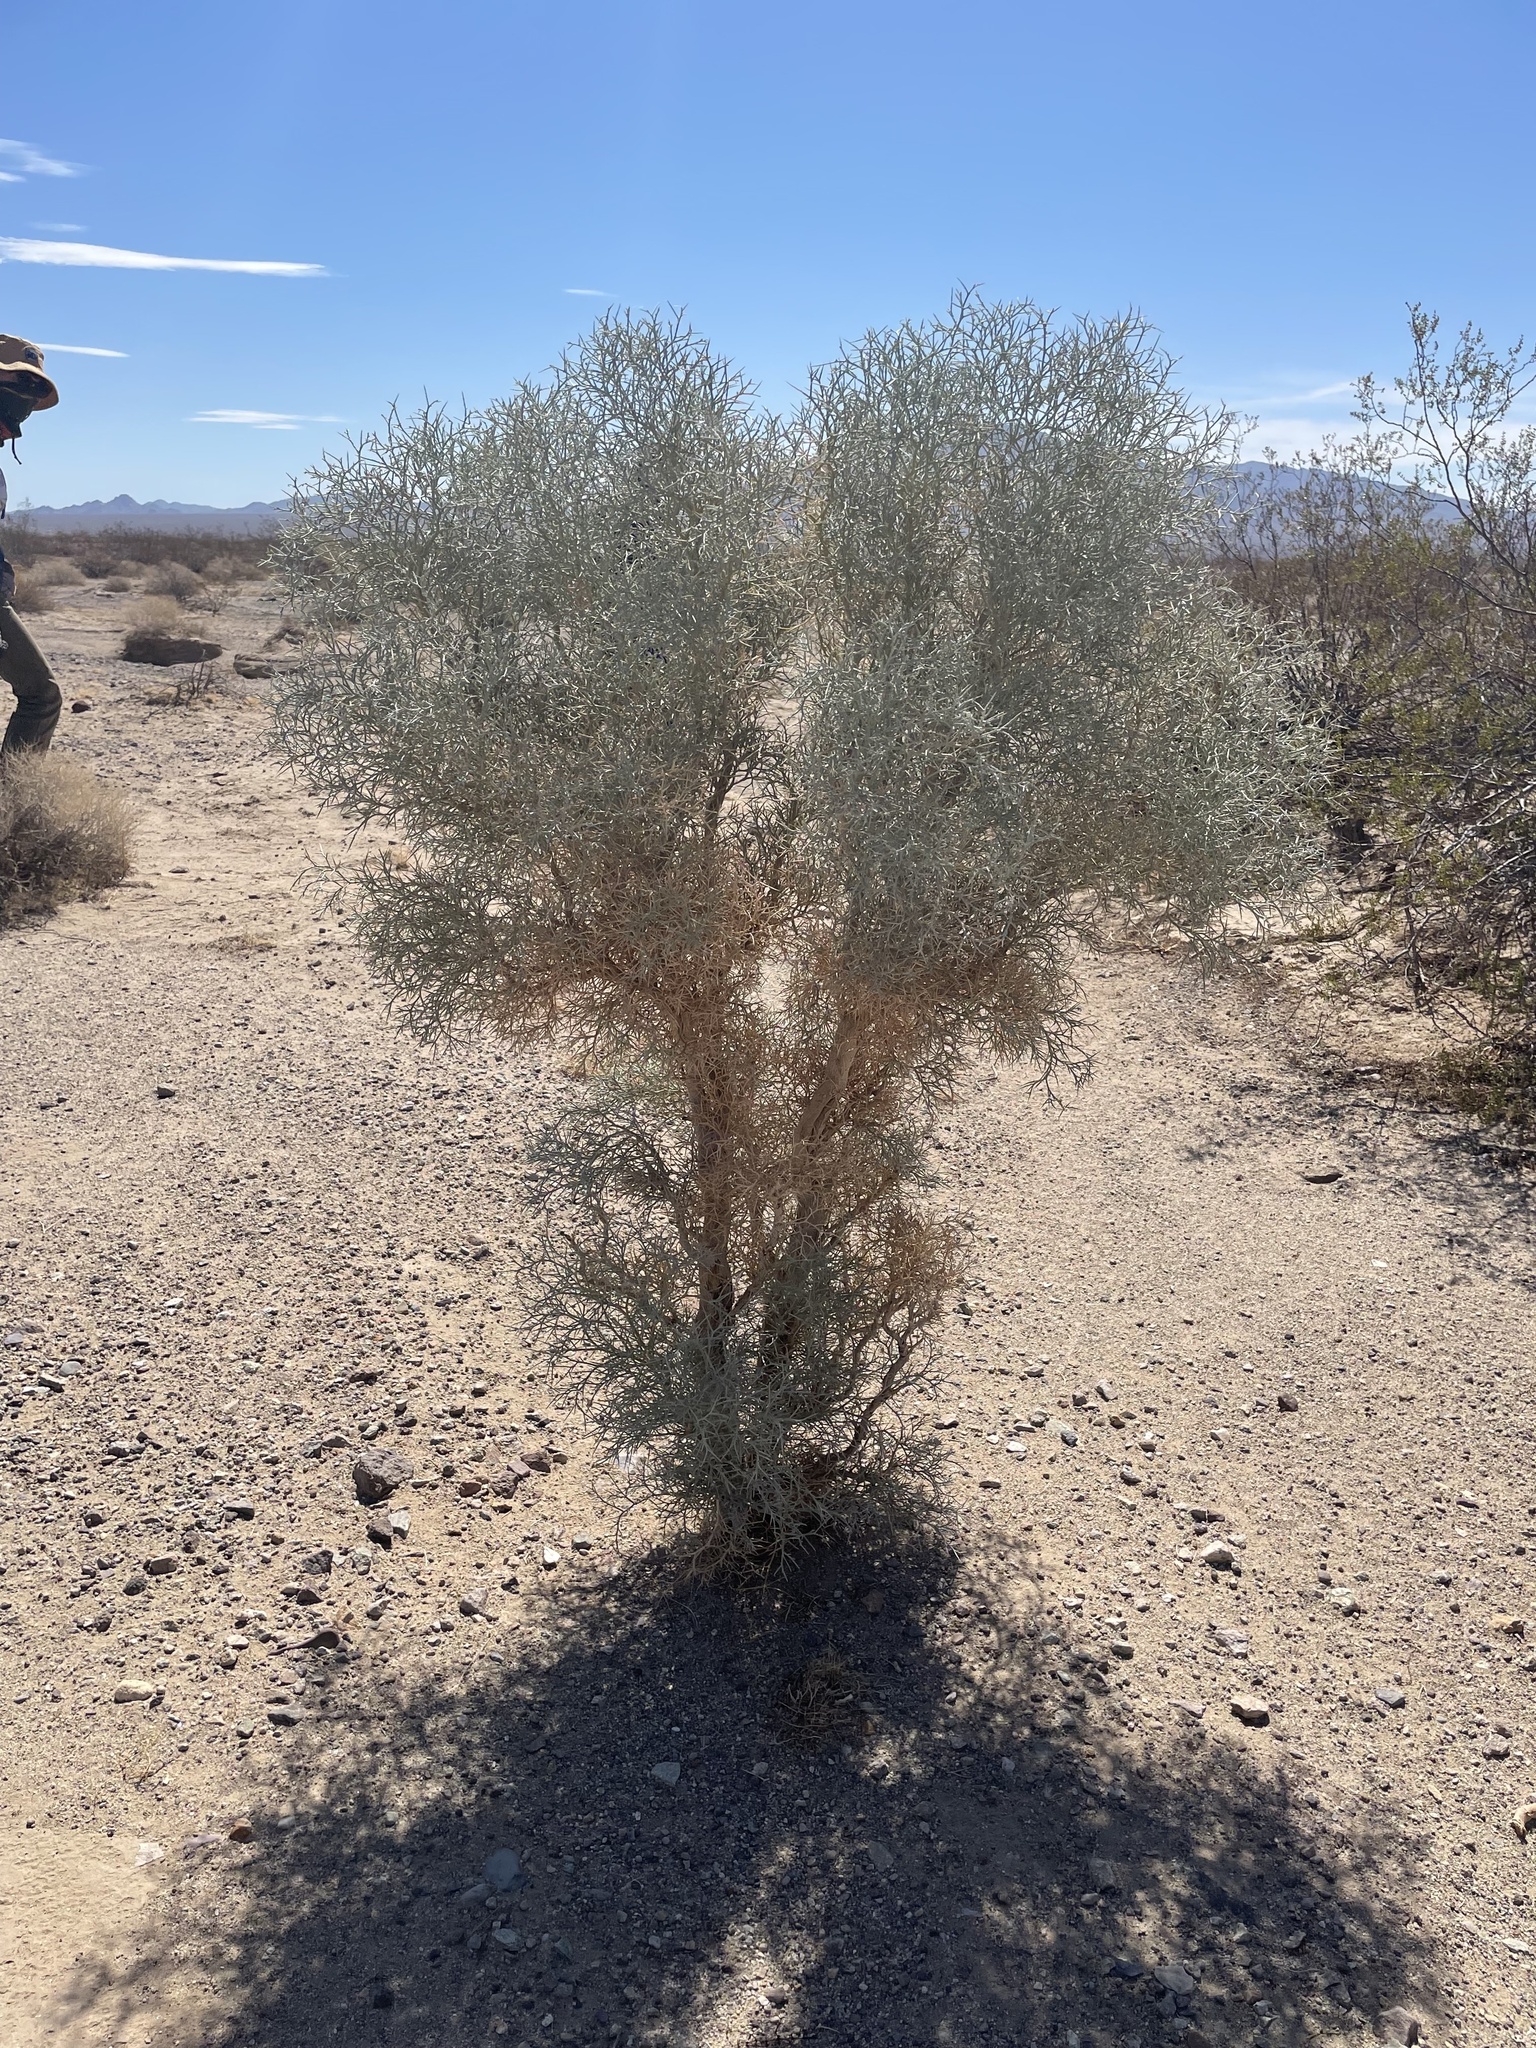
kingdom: Plantae
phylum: Tracheophyta
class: Magnoliopsida
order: Fabales
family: Fabaceae
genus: Psorothamnus
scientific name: Psorothamnus spinosus
